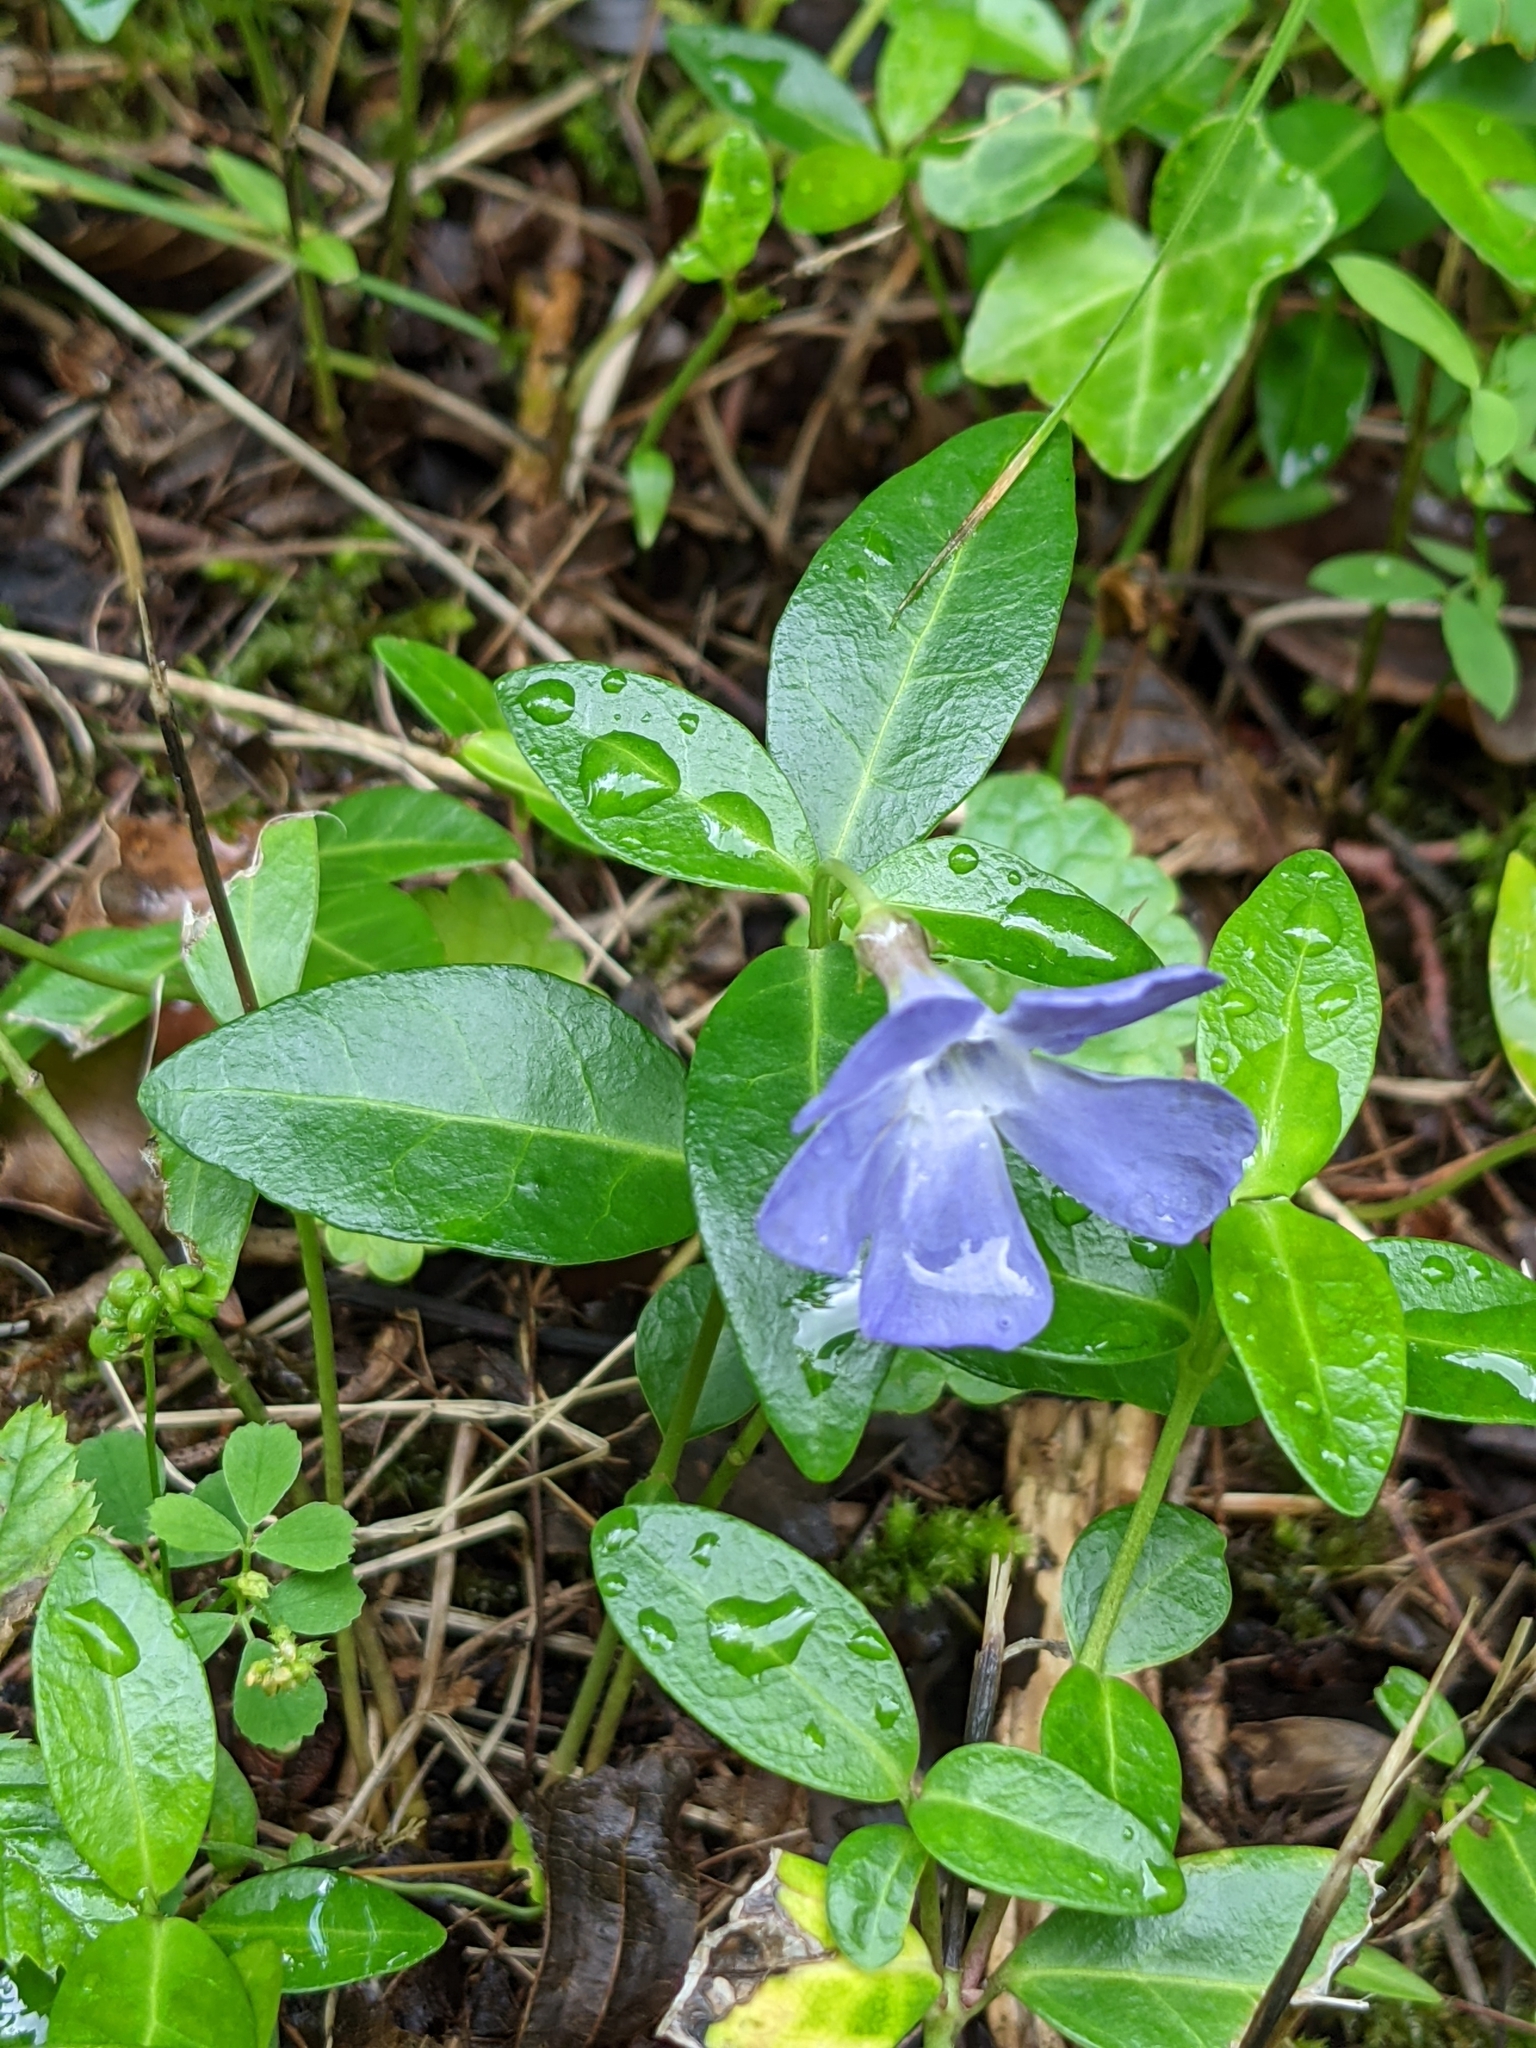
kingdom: Plantae
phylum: Tracheophyta
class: Magnoliopsida
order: Gentianales
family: Apocynaceae
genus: Vinca
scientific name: Vinca minor
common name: Lesser periwinkle
